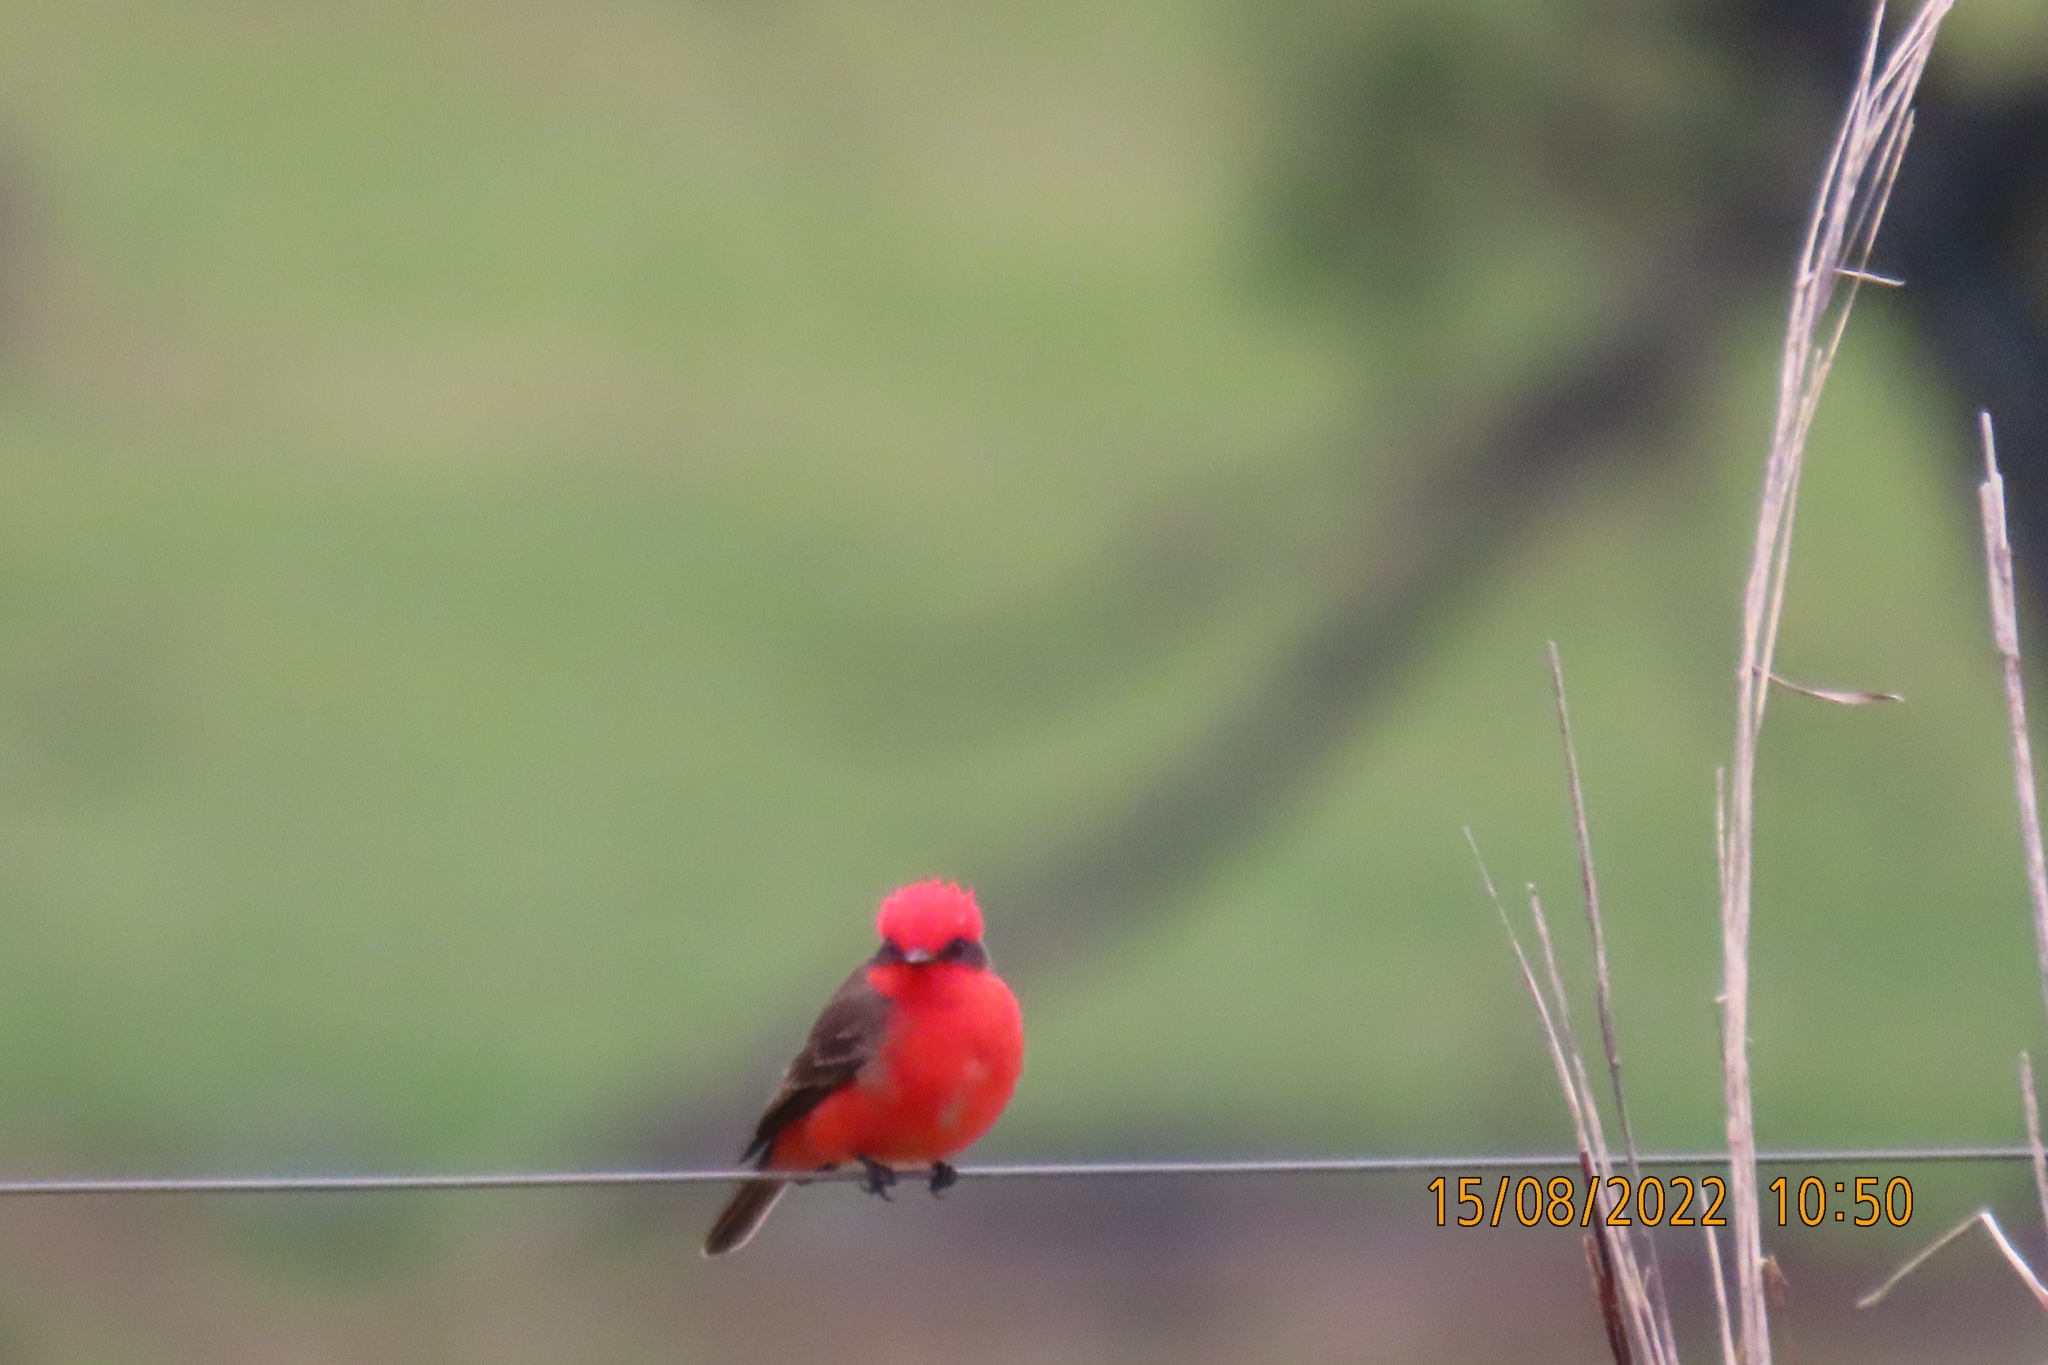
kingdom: Animalia
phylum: Chordata
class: Aves
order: Passeriformes
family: Tyrannidae
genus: Pyrocephalus
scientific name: Pyrocephalus rubinus
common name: Vermilion flycatcher
